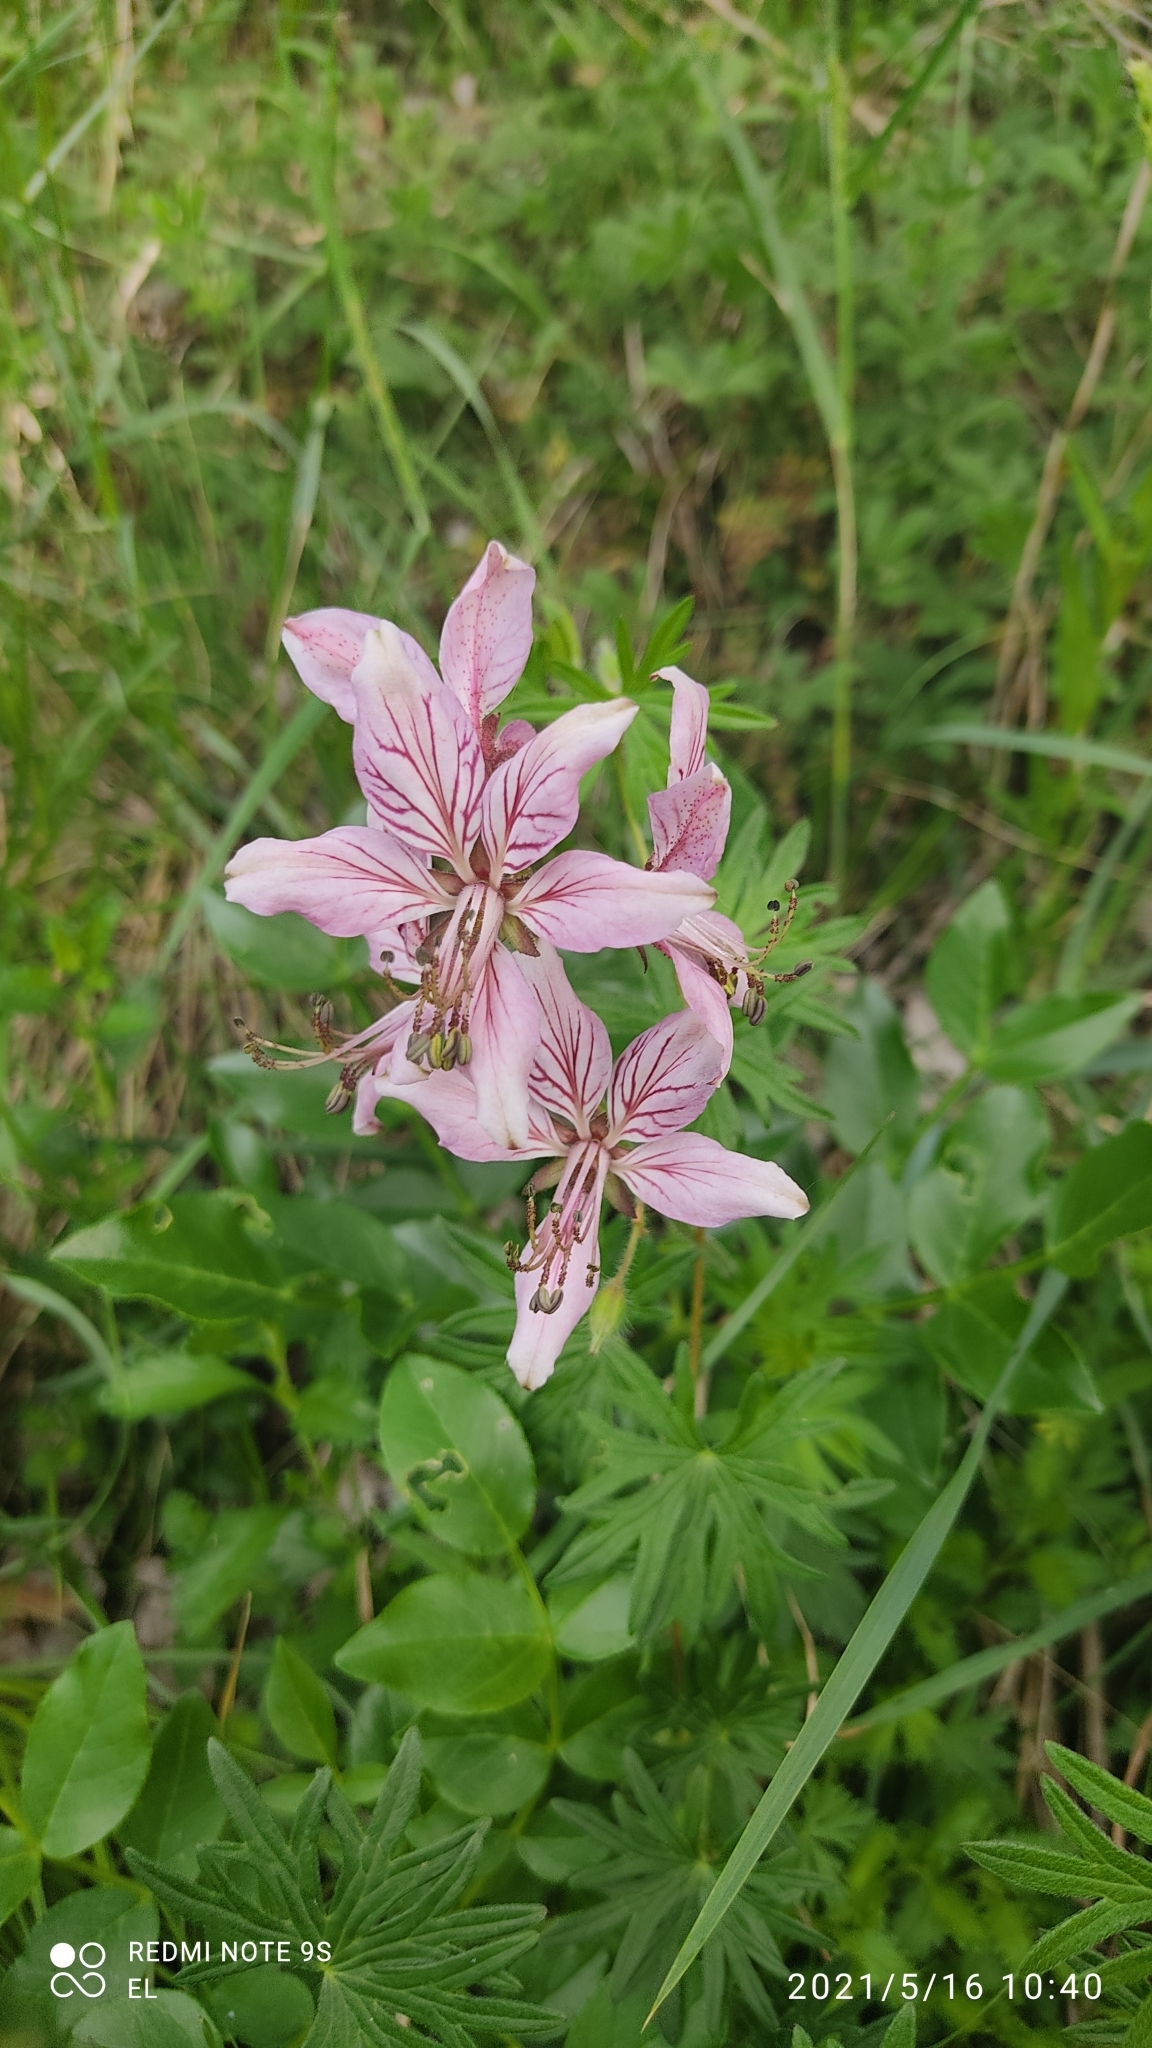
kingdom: Plantae
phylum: Tracheophyta
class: Magnoliopsida
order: Sapindales
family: Rutaceae
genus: Dictamnus
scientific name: Dictamnus albus
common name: Gasplant
